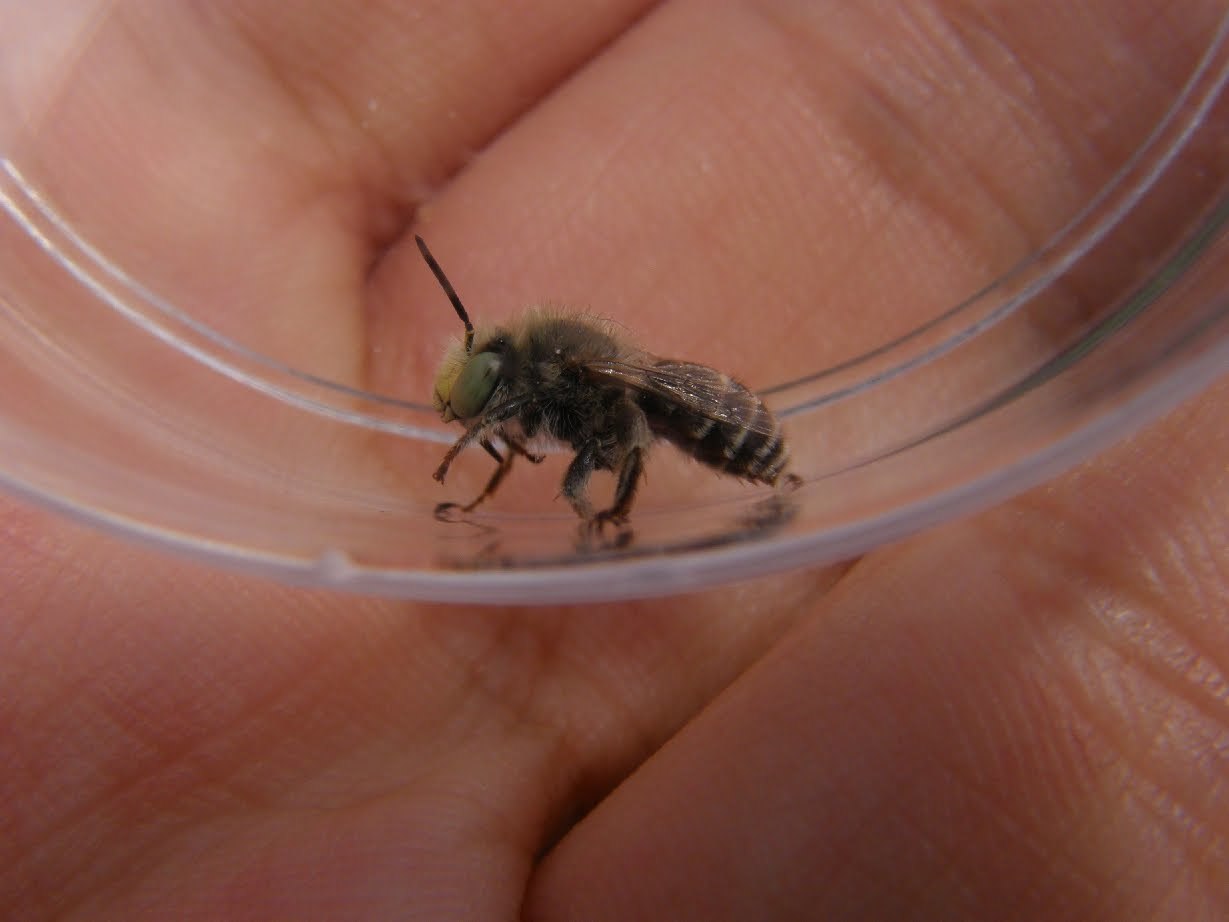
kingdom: Animalia
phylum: Arthropoda
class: Insecta
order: Hymenoptera
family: Apidae
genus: Anthophora
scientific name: Anthophora bimaculata
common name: Green-eyed flower bee
